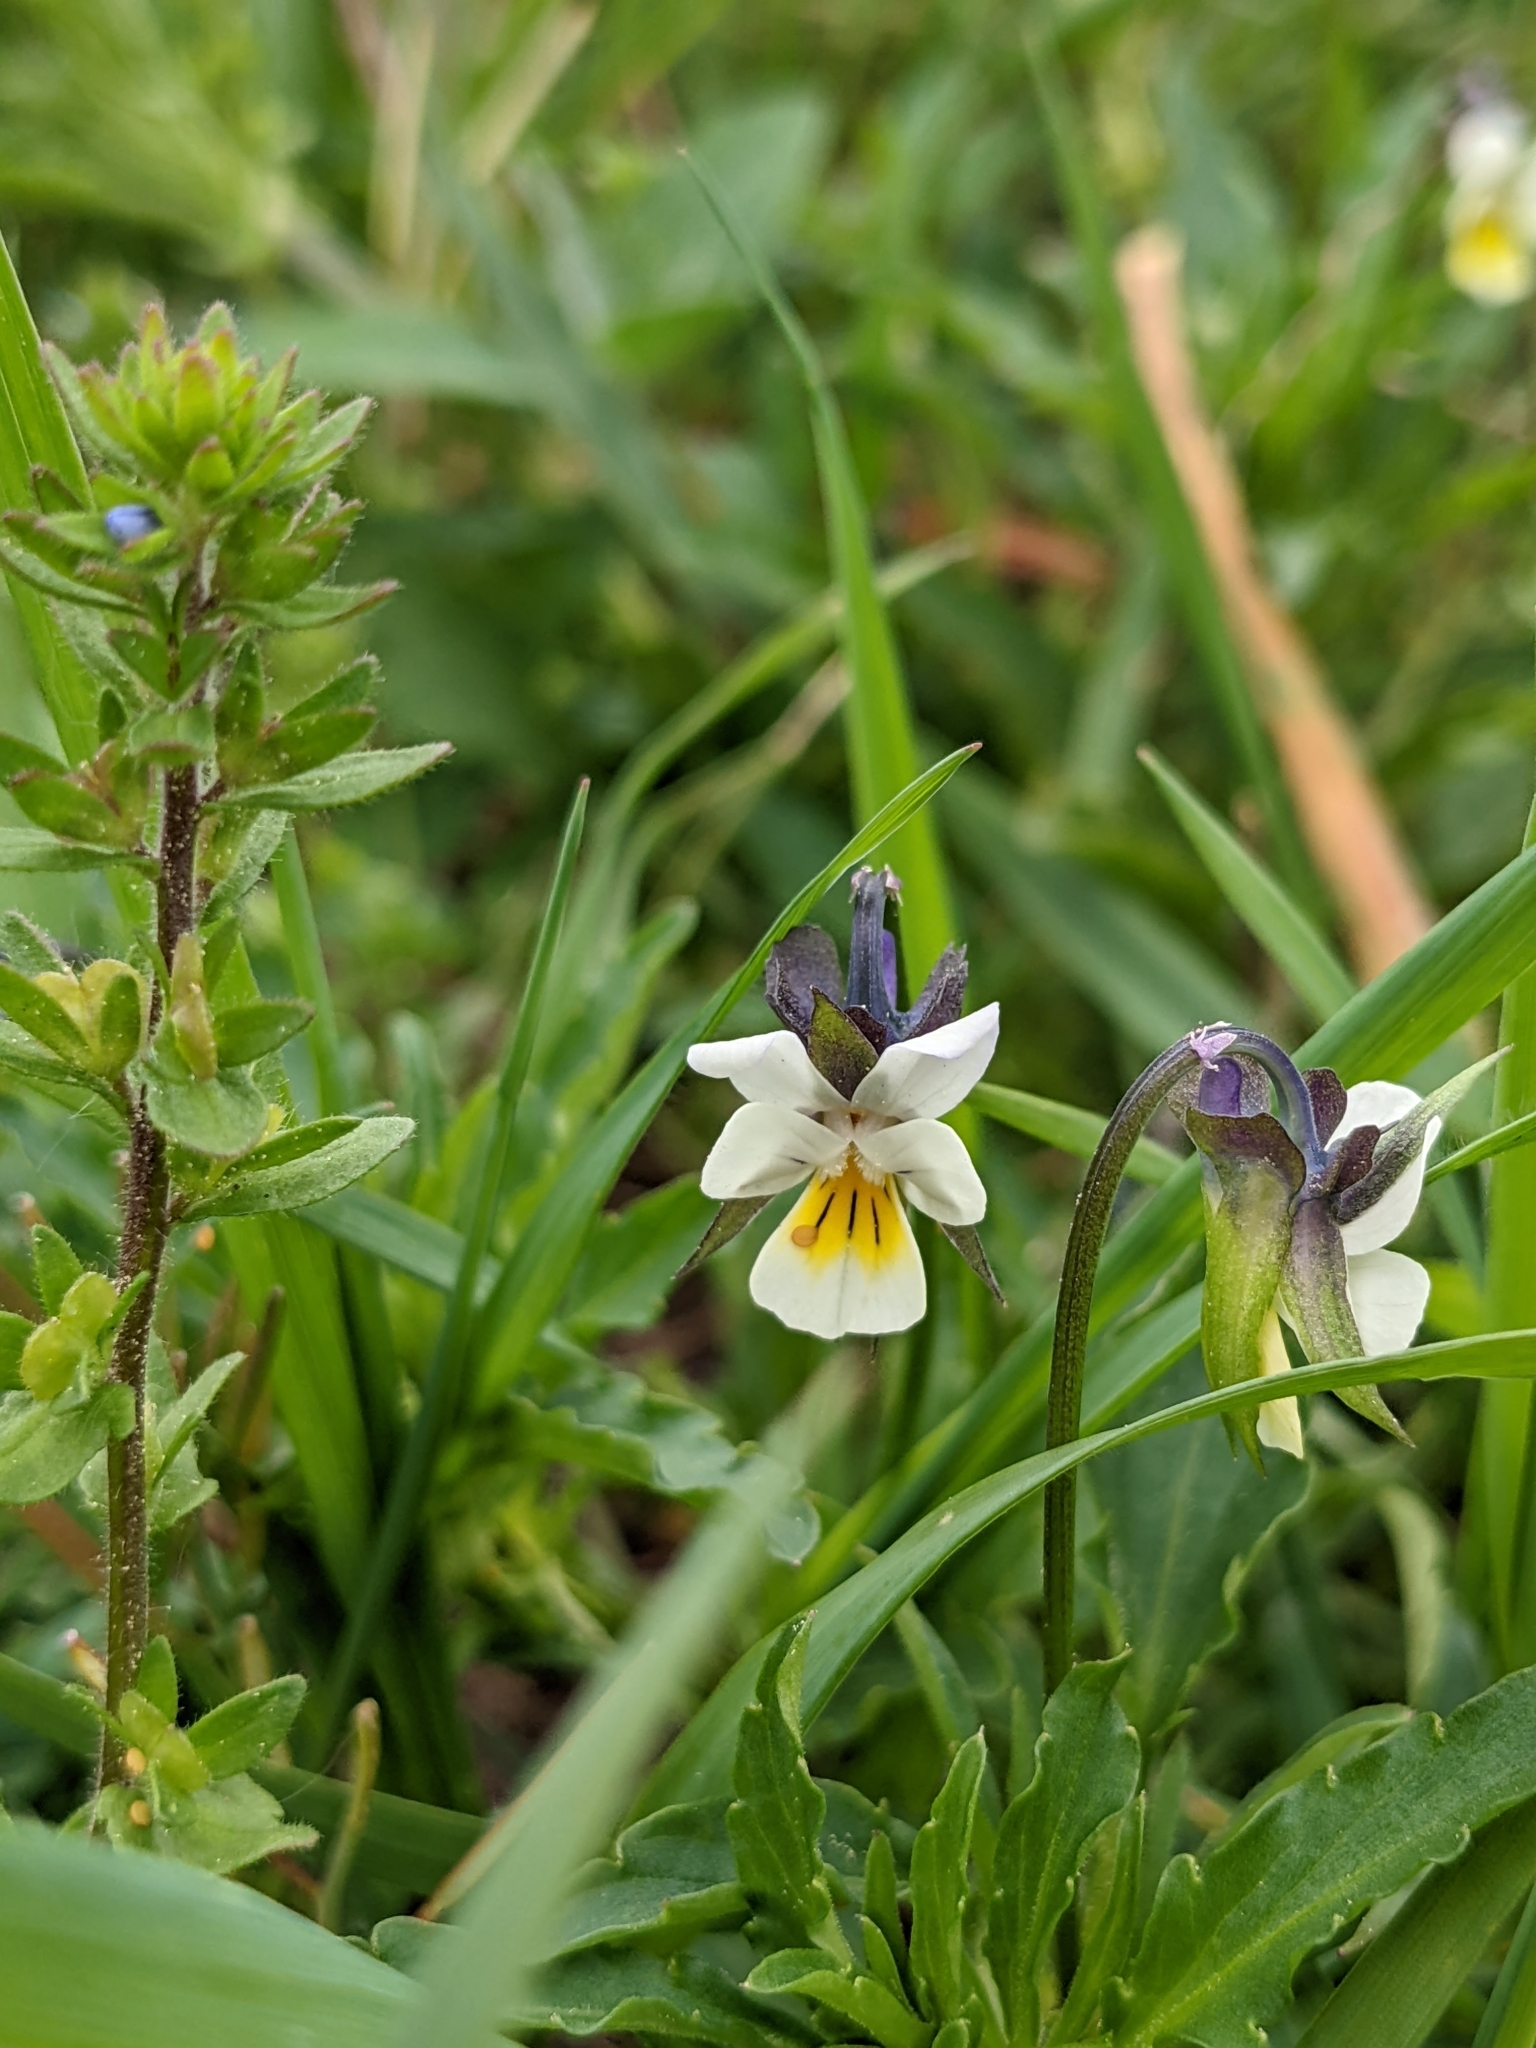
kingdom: Plantae
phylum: Tracheophyta
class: Magnoliopsida
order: Malpighiales
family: Violaceae
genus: Viola
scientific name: Viola arvensis
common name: Field pansy
